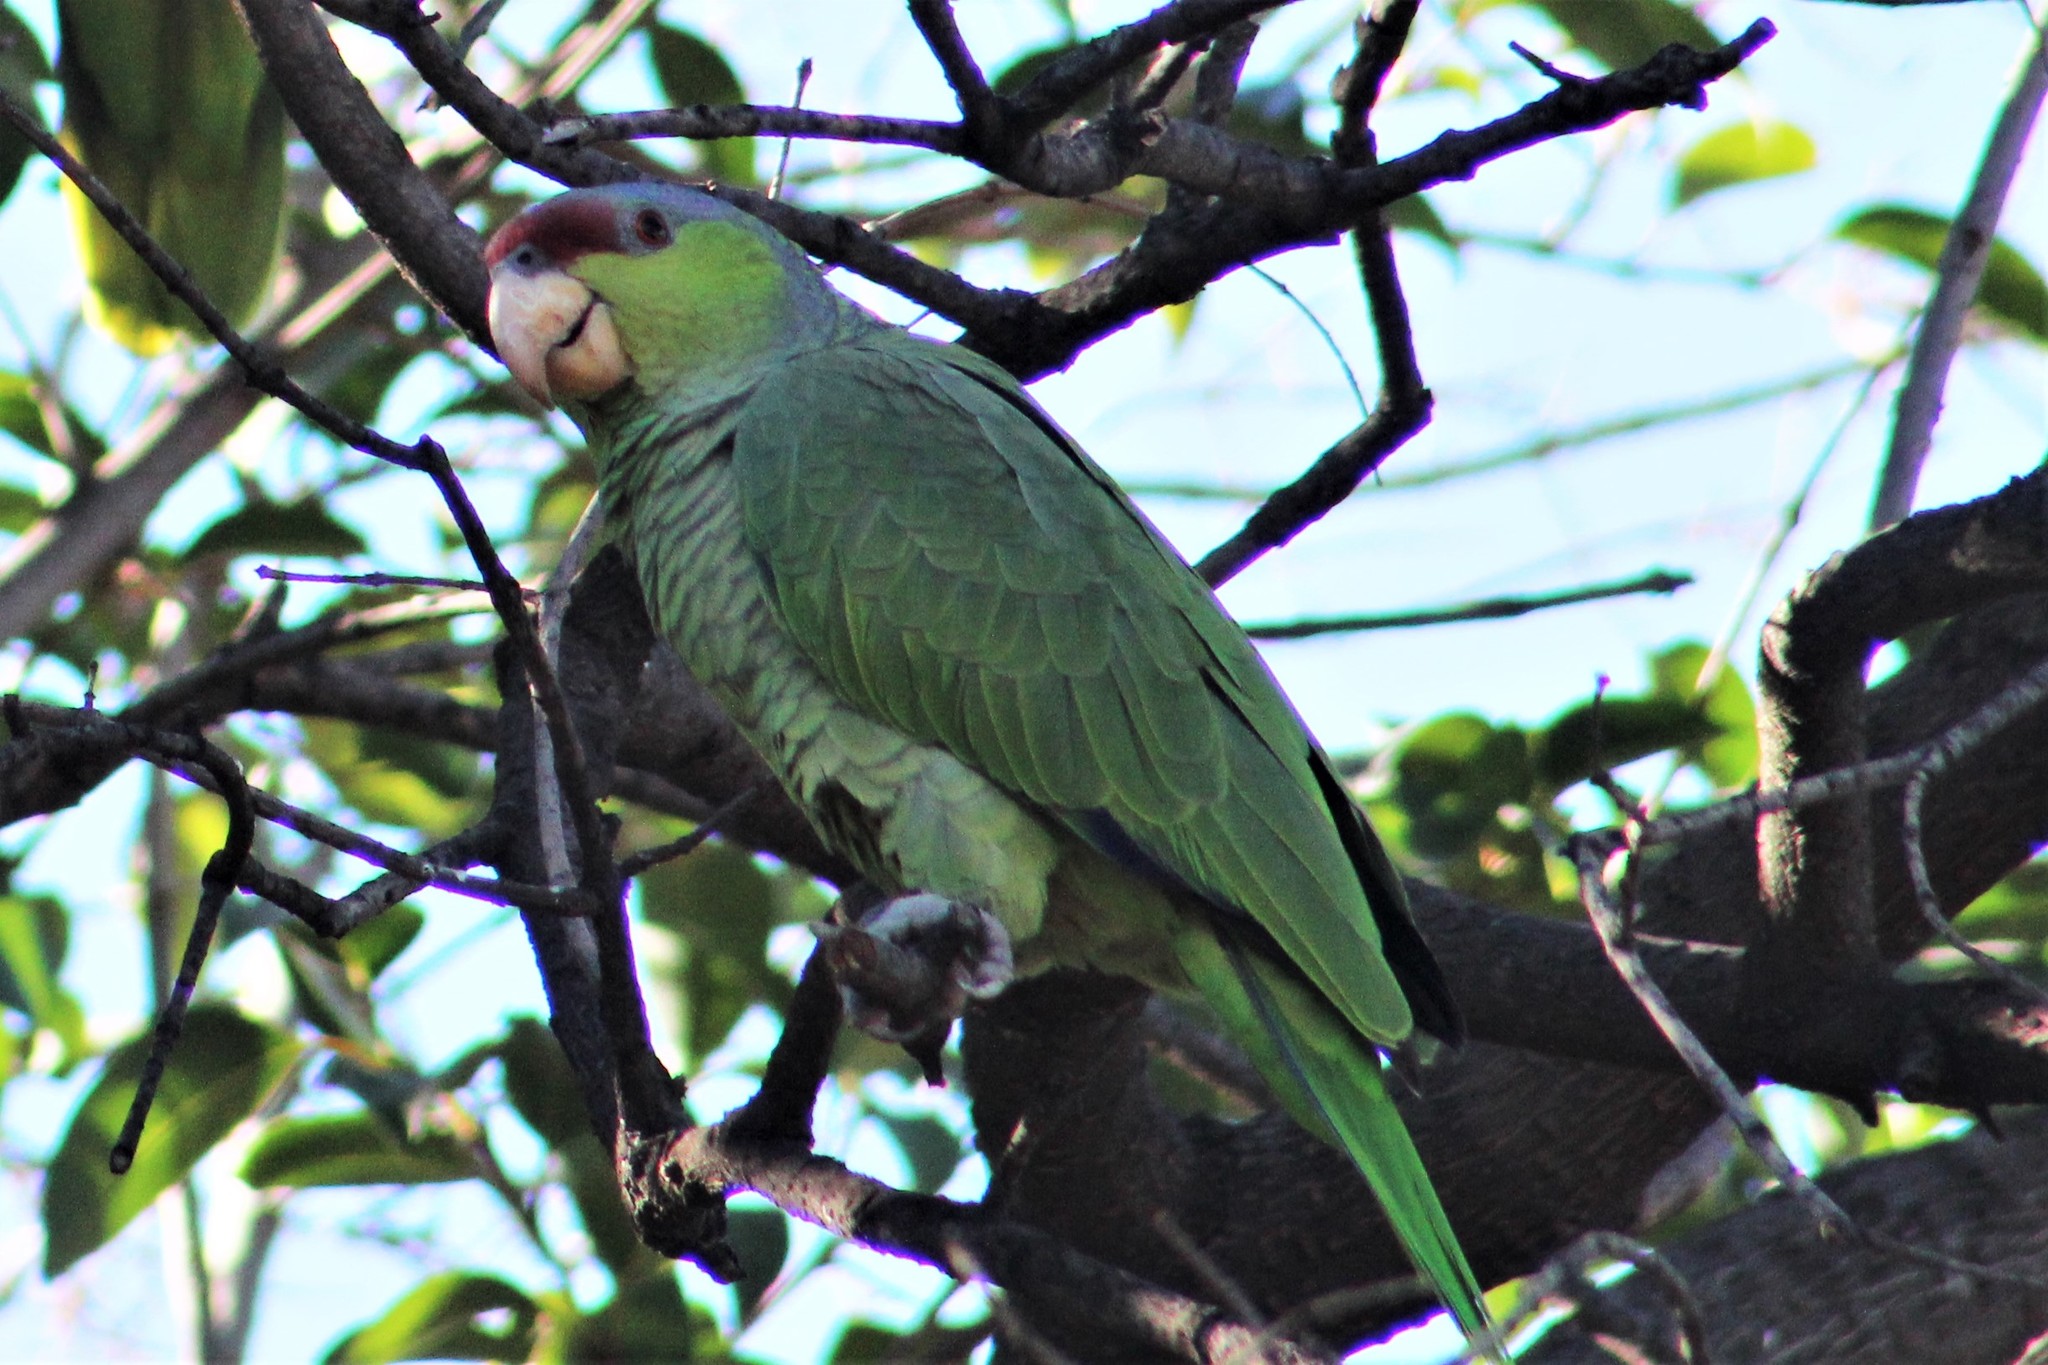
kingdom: Animalia
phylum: Chordata
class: Aves
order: Psittaciformes
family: Psittacidae
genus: Amazona
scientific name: Amazona finschi
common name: Lilac-crowned amazon
